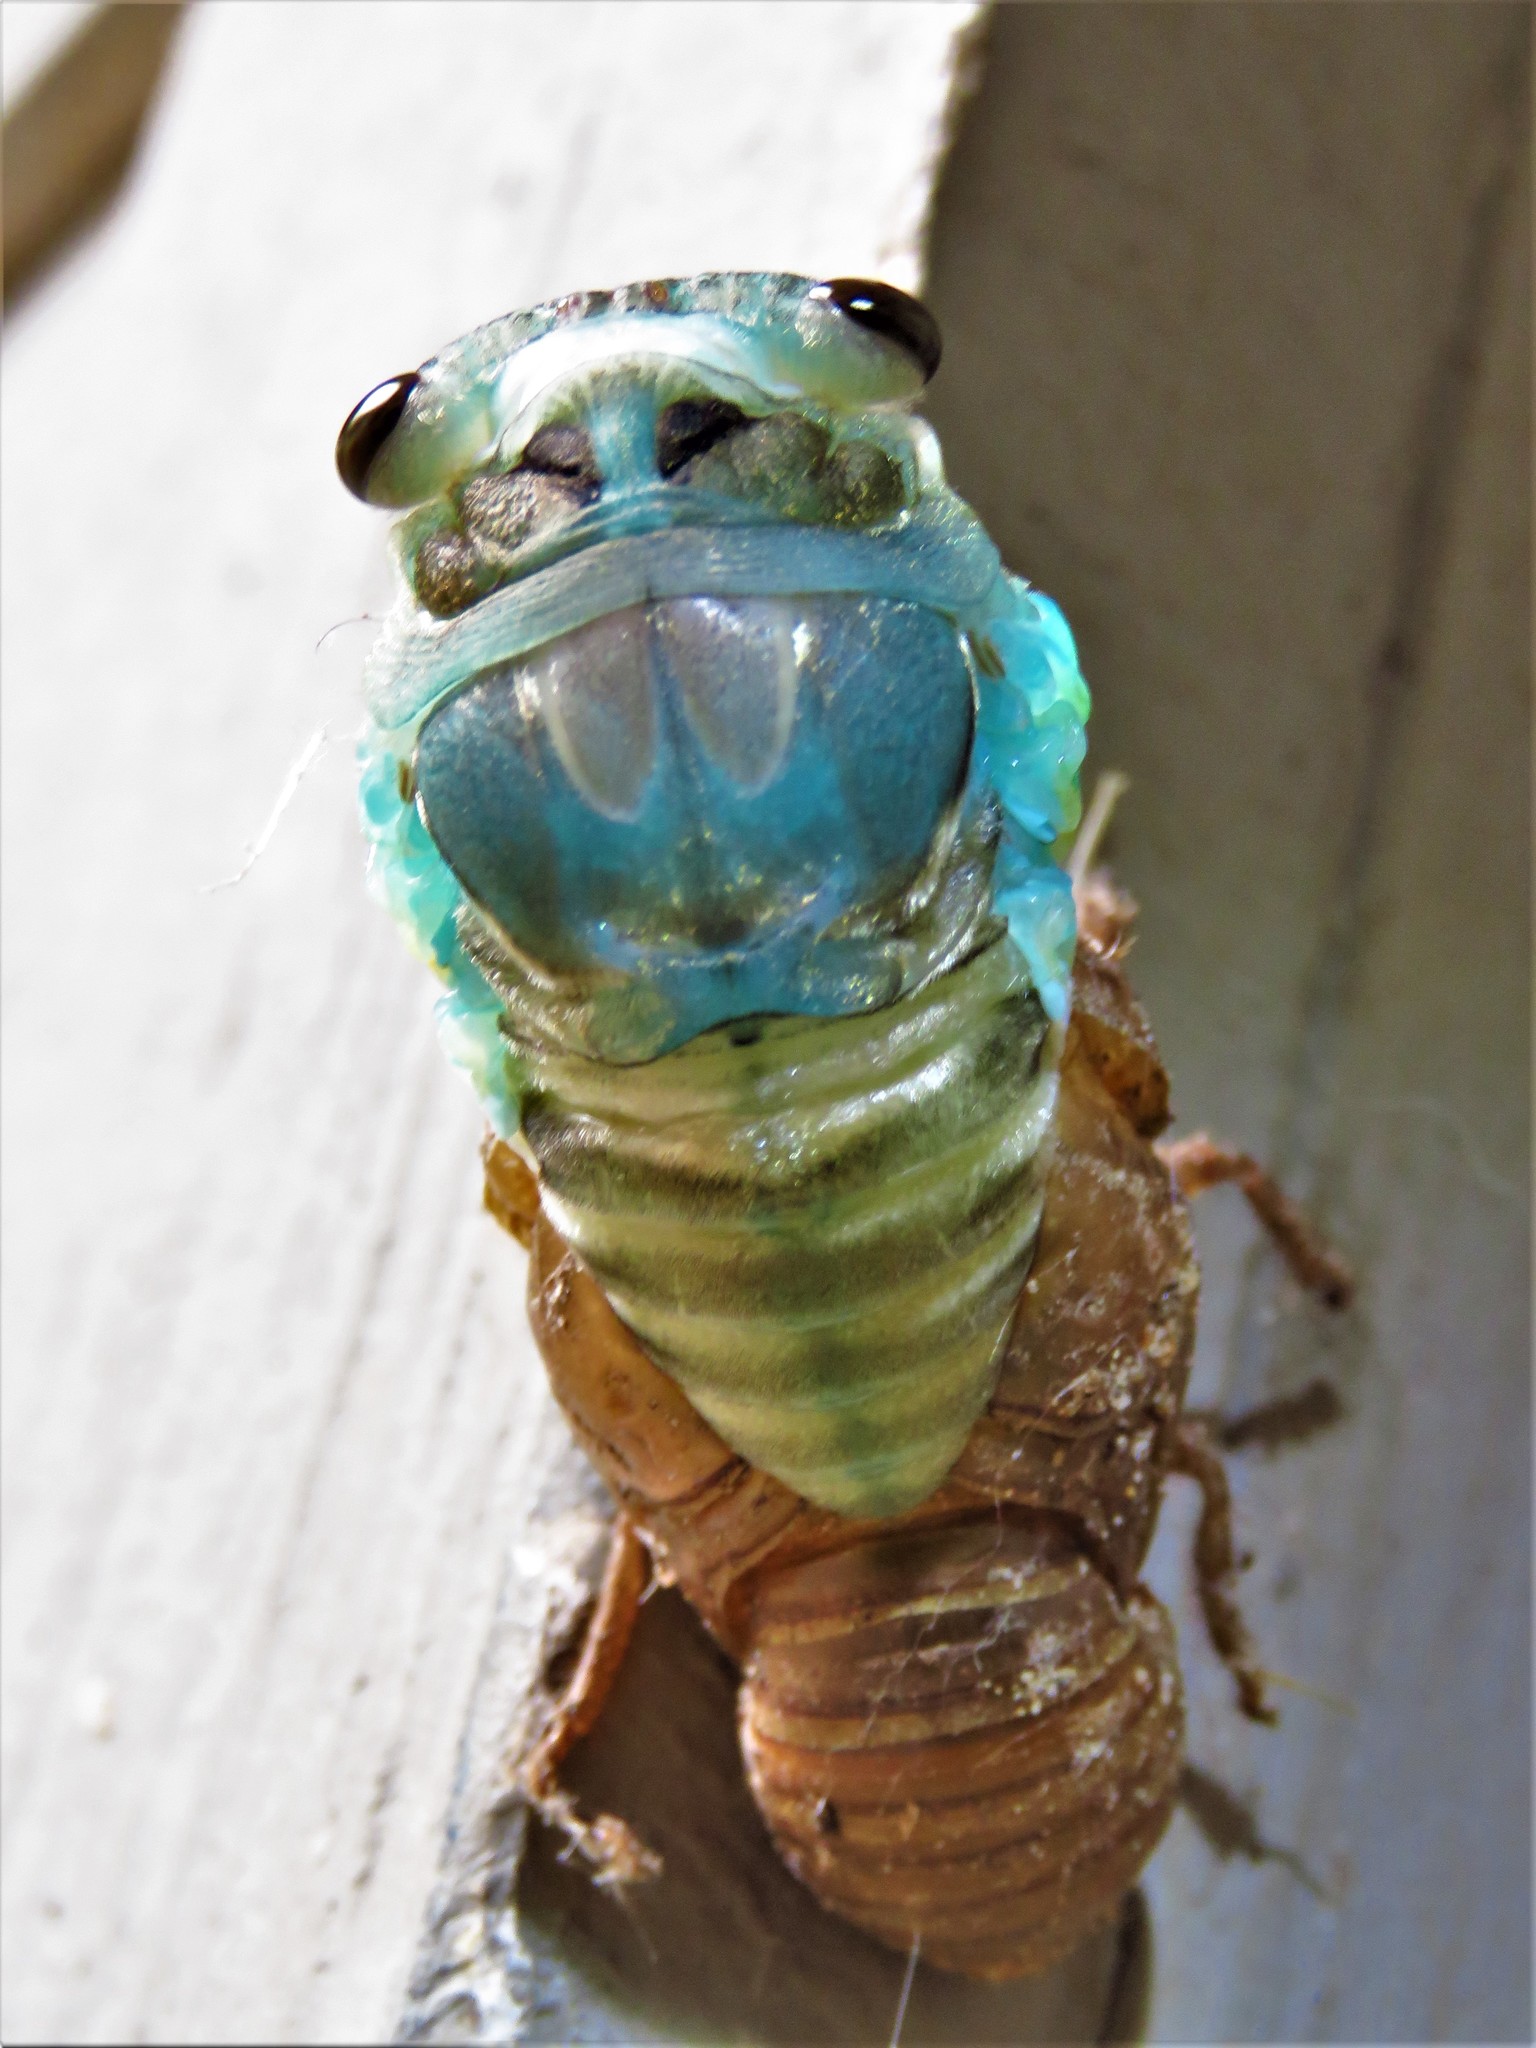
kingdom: Animalia
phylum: Arthropoda
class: Insecta
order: Hemiptera
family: Cicadidae
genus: Neotibicen
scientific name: Neotibicen lyricen
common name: Lyric cicada
